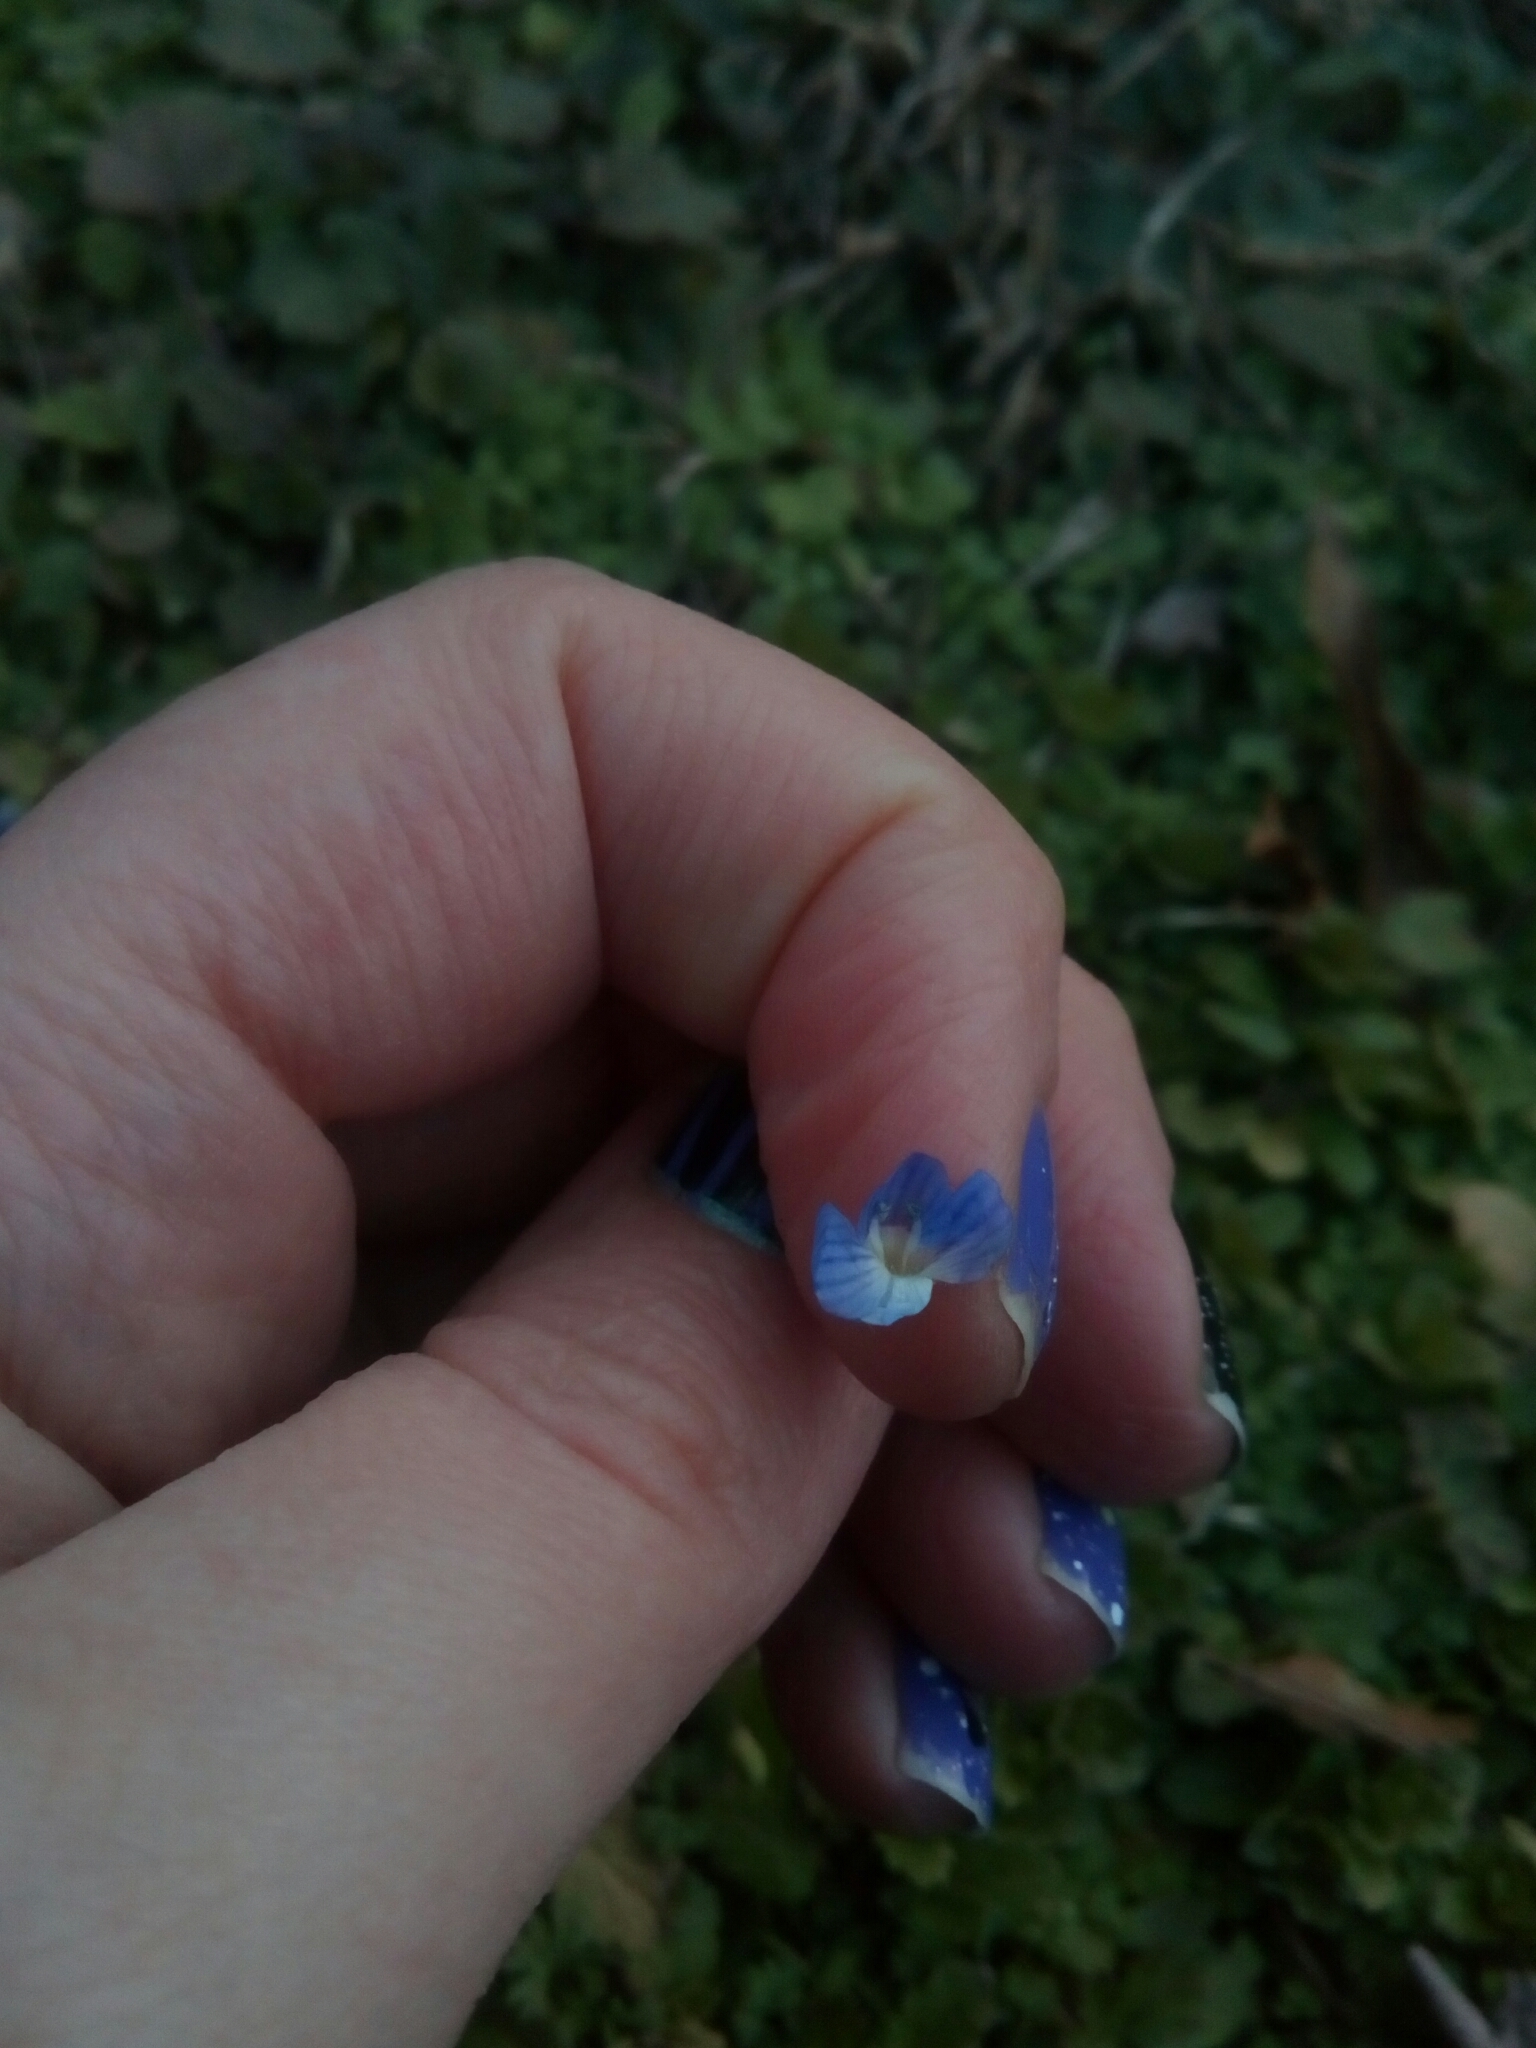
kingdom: Plantae
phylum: Tracheophyta
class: Magnoliopsida
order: Lamiales
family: Plantaginaceae
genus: Veronica
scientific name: Veronica persica
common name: Common field-speedwell
